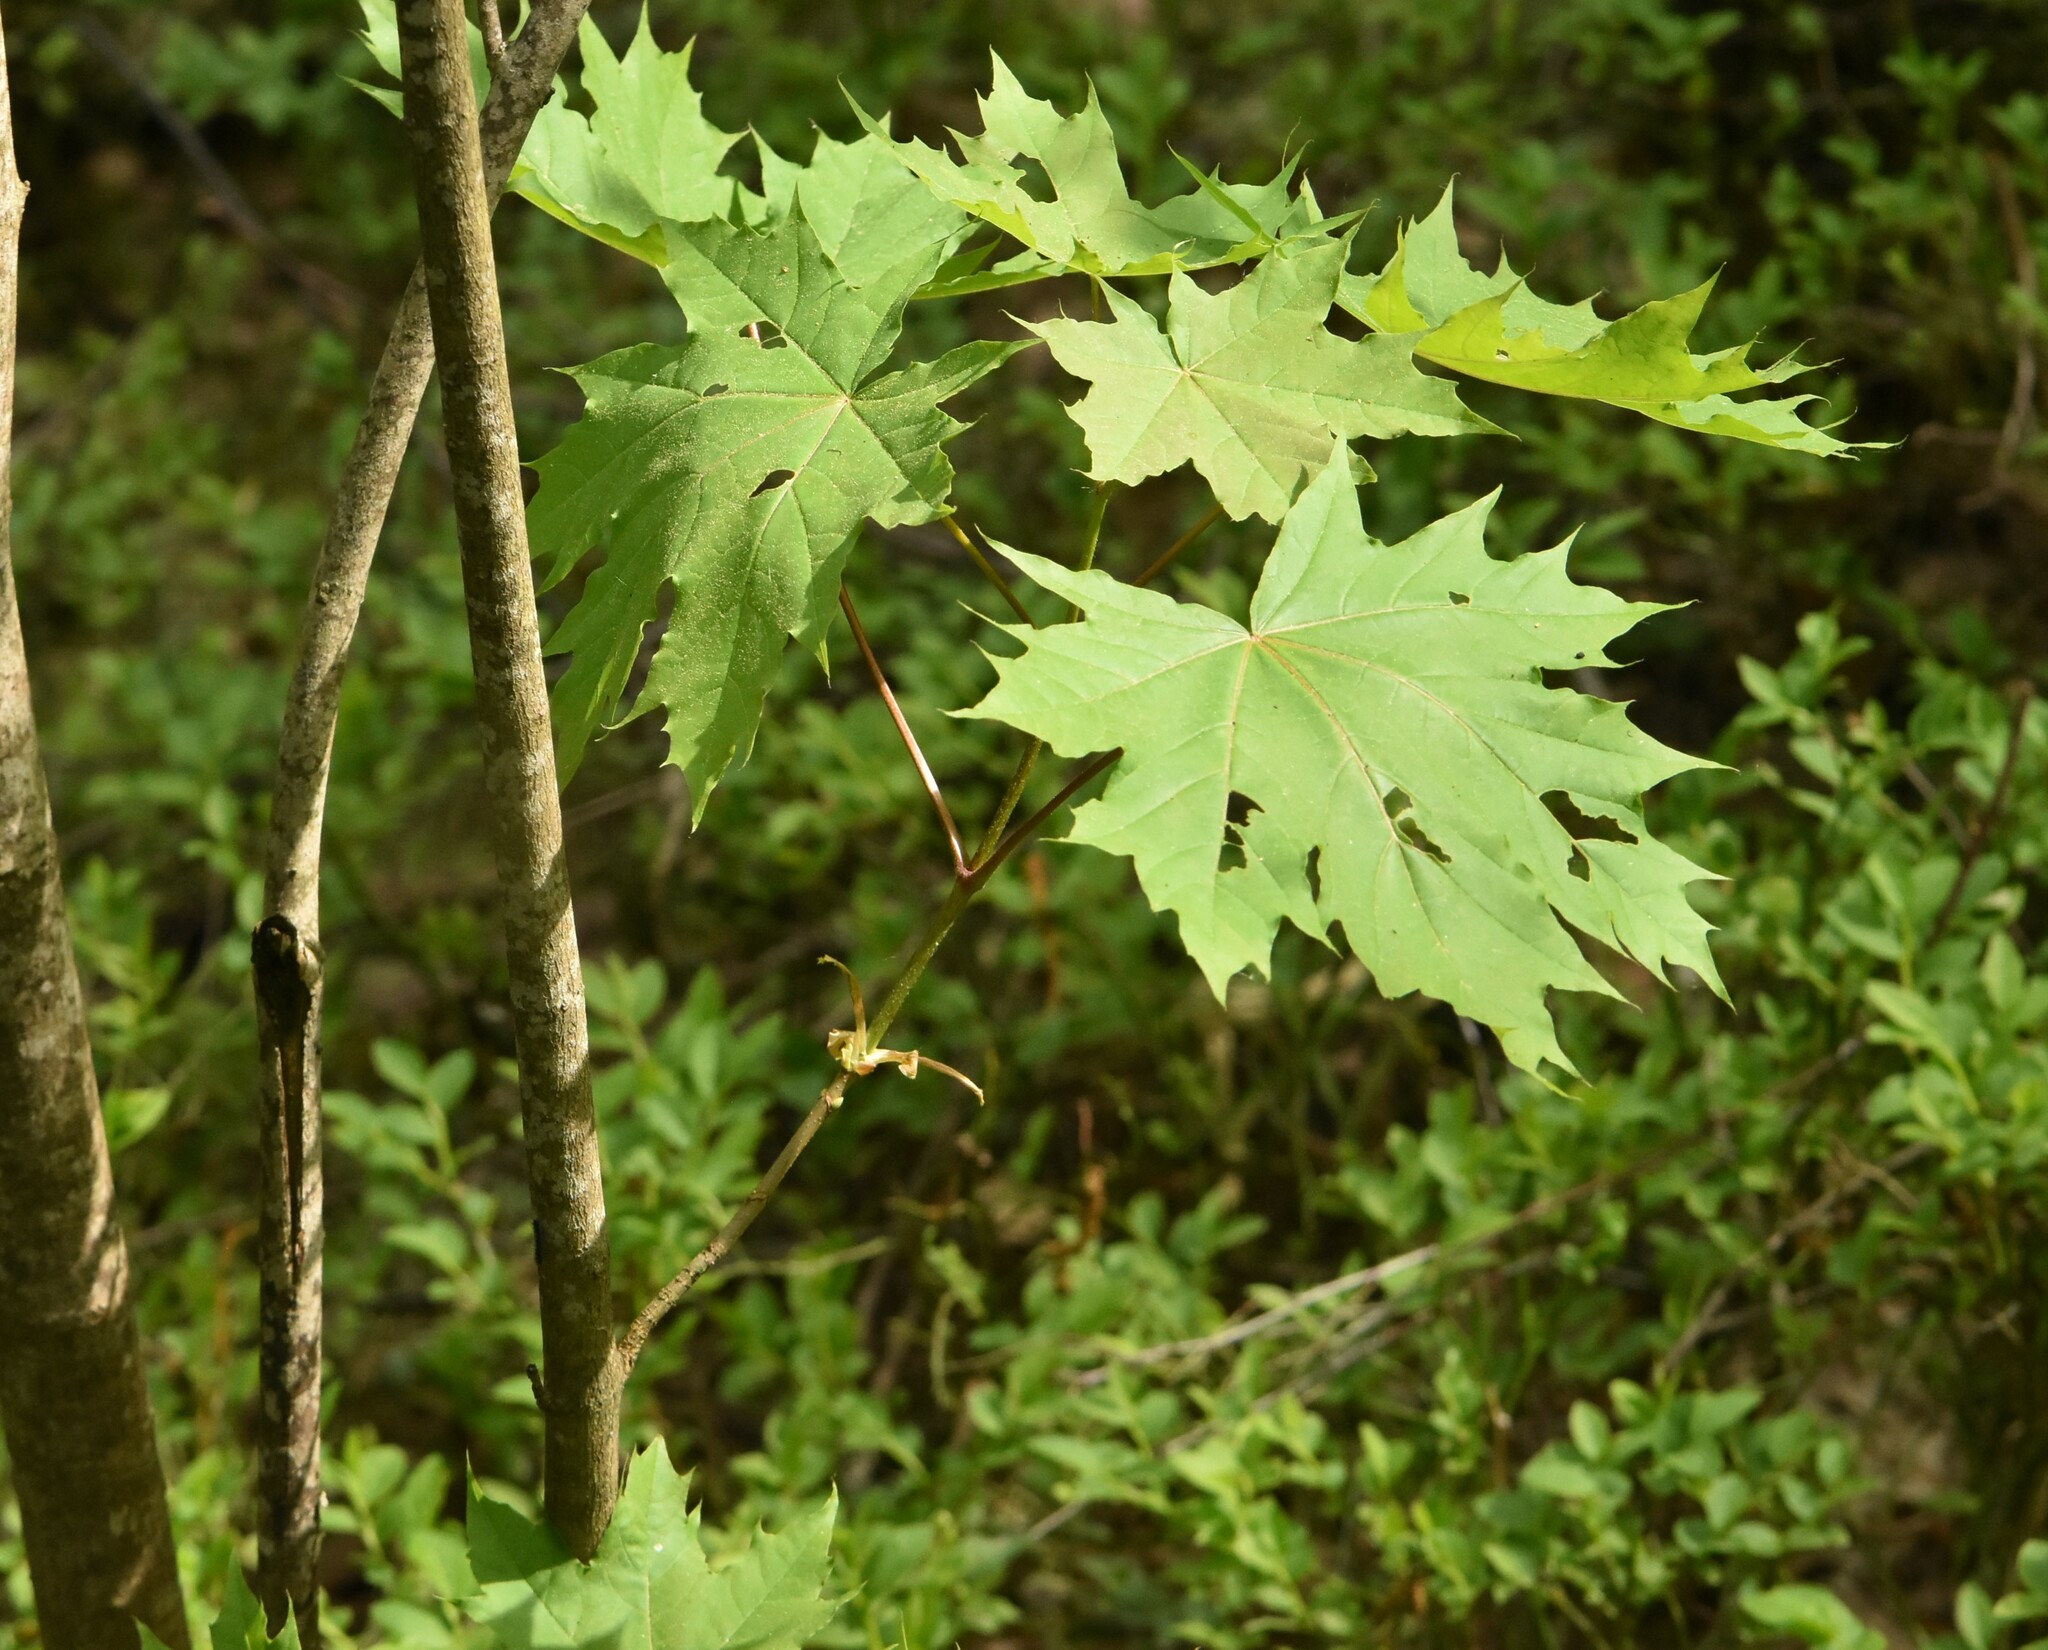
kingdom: Plantae
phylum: Tracheophyta
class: Magnoliopsida
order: Sapindales
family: Sapindaceae
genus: Acer
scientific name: Acer platanoides
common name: Norway maple
